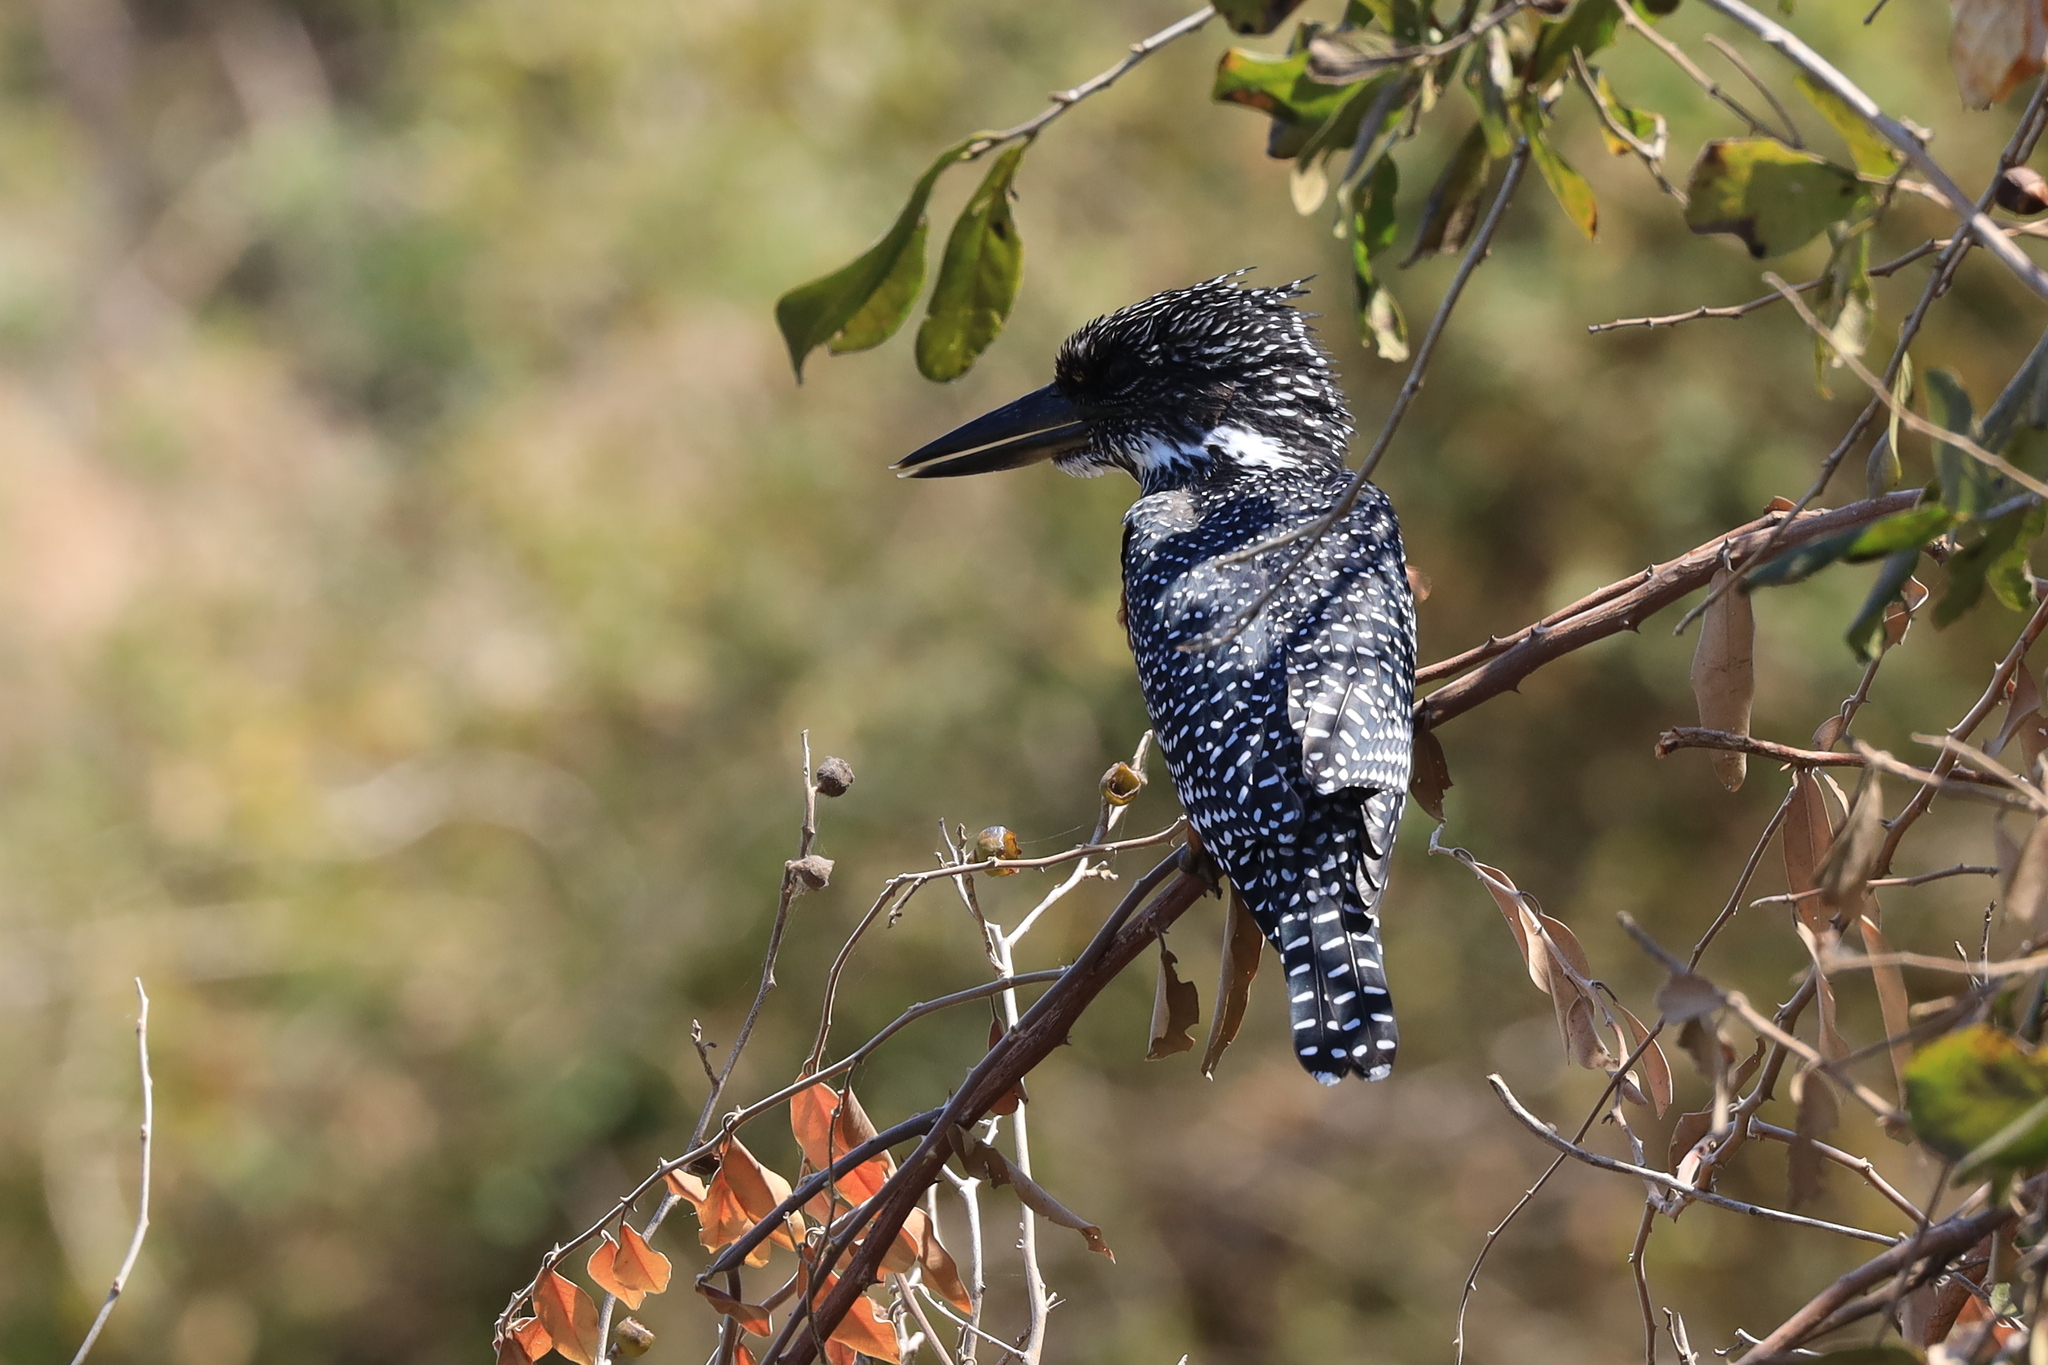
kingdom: Animalia
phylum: Chordata
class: Aves
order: Coraciiformes
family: Alcedinidae
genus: Megaceryle
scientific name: Megaceryle maxima
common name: Giant kingfisher
